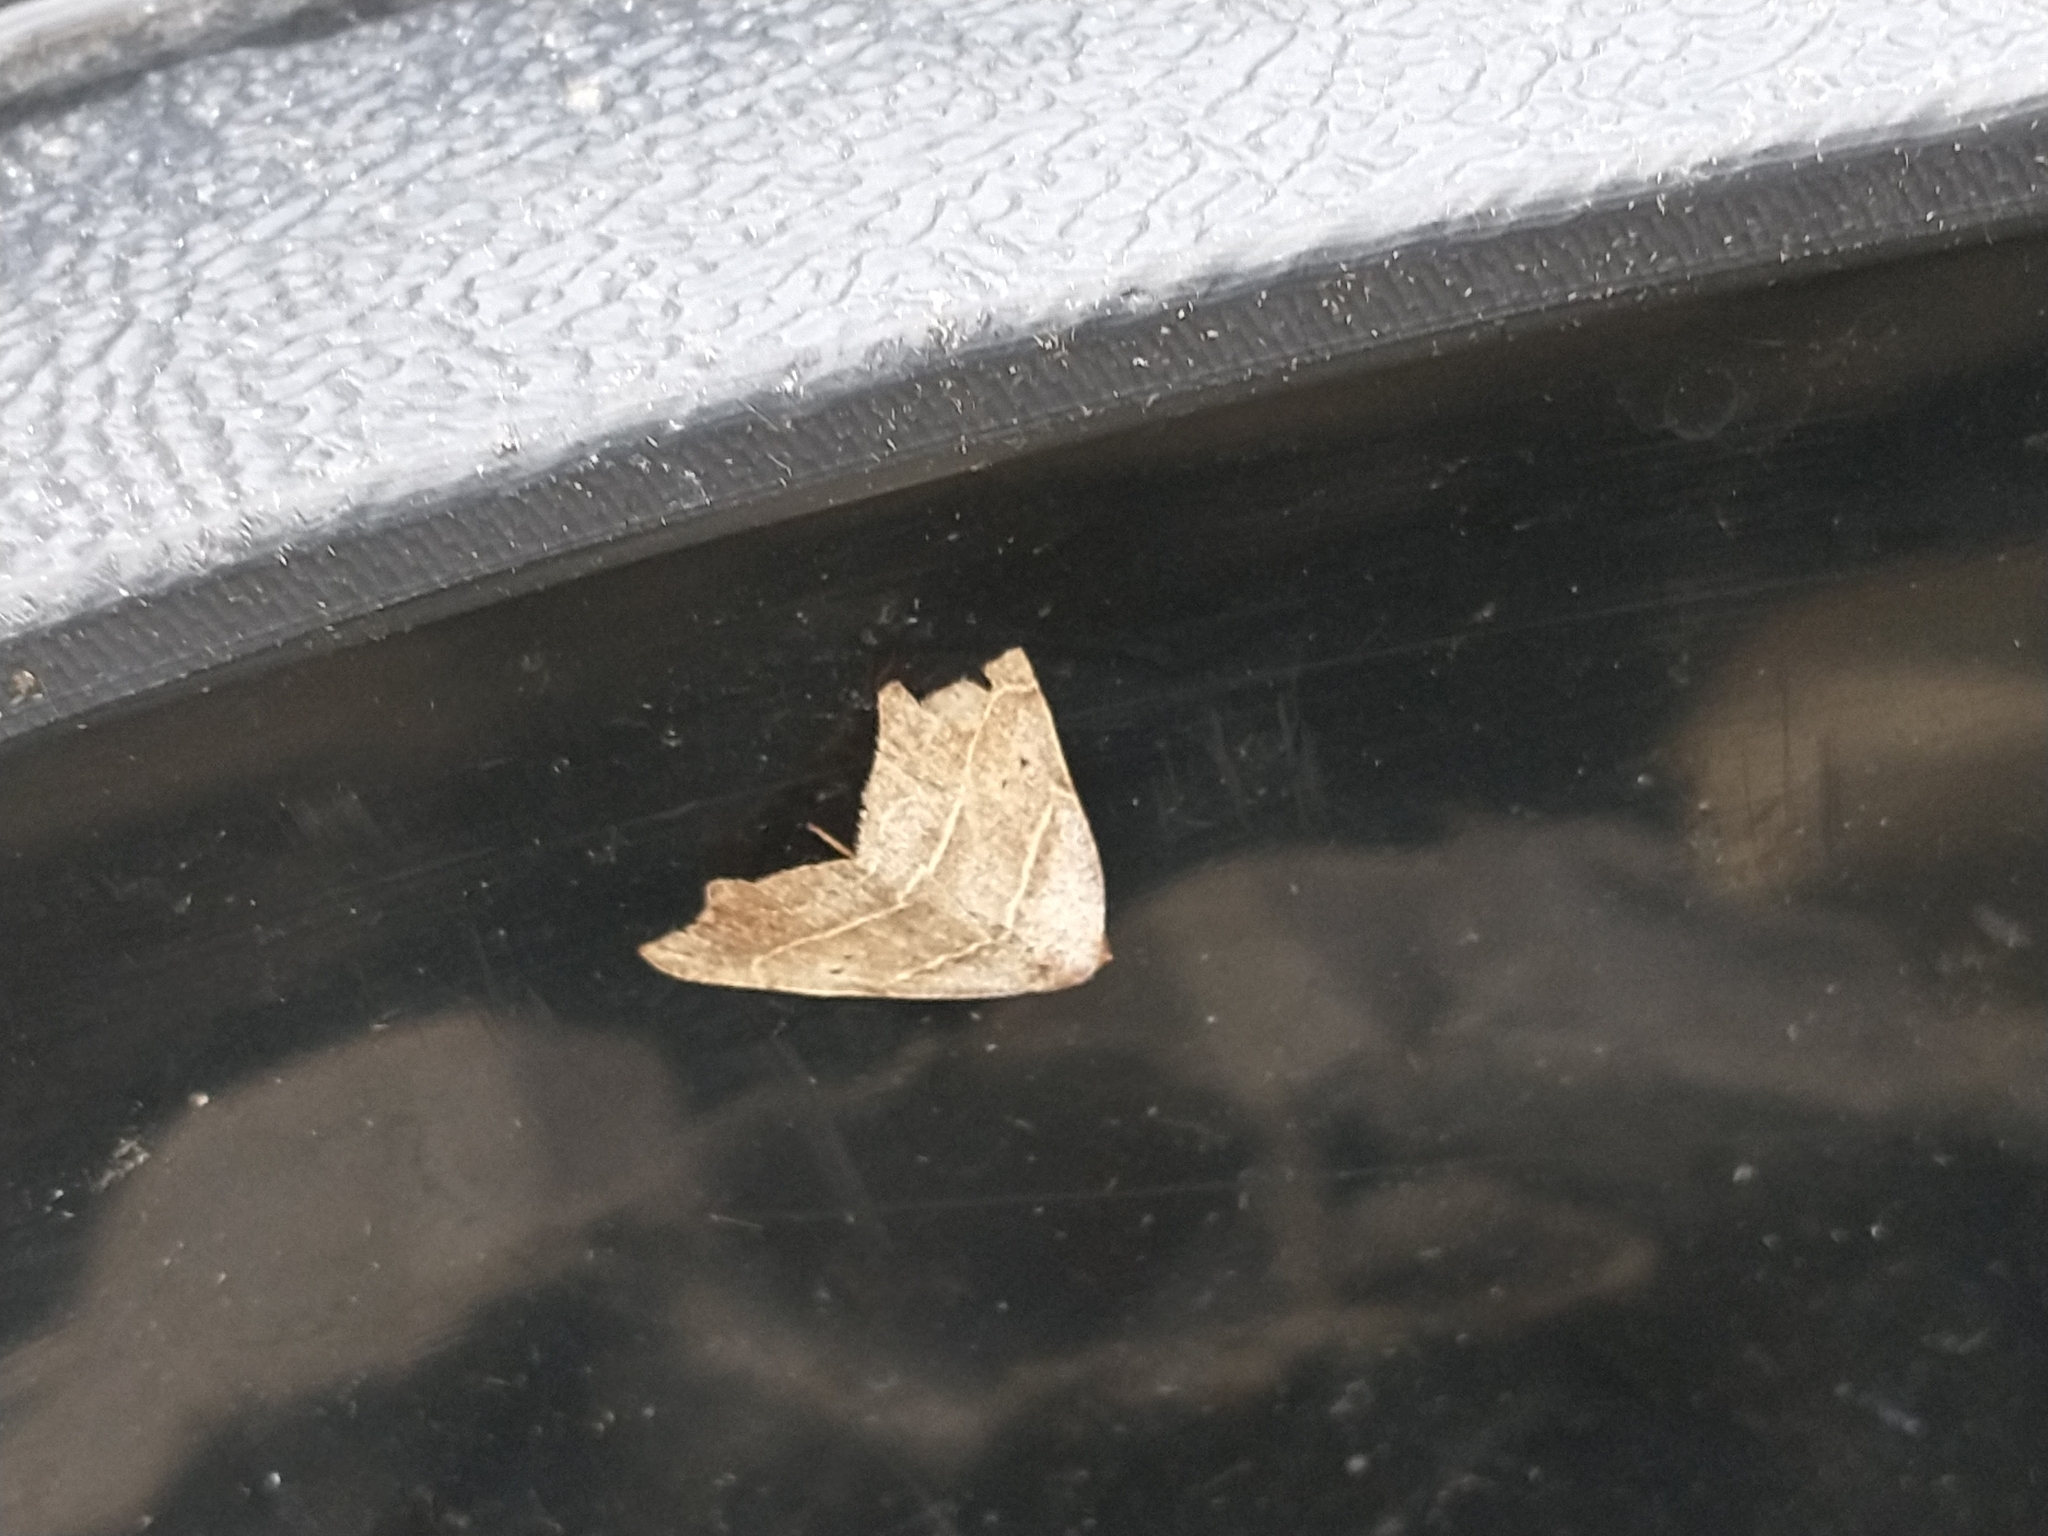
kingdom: Animalia
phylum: Arthropoda
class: Insecta
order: Lepidoptera
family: Erebidae
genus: Laspeyria
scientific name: Laspeyria flexula
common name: Beautiful hook-tip
